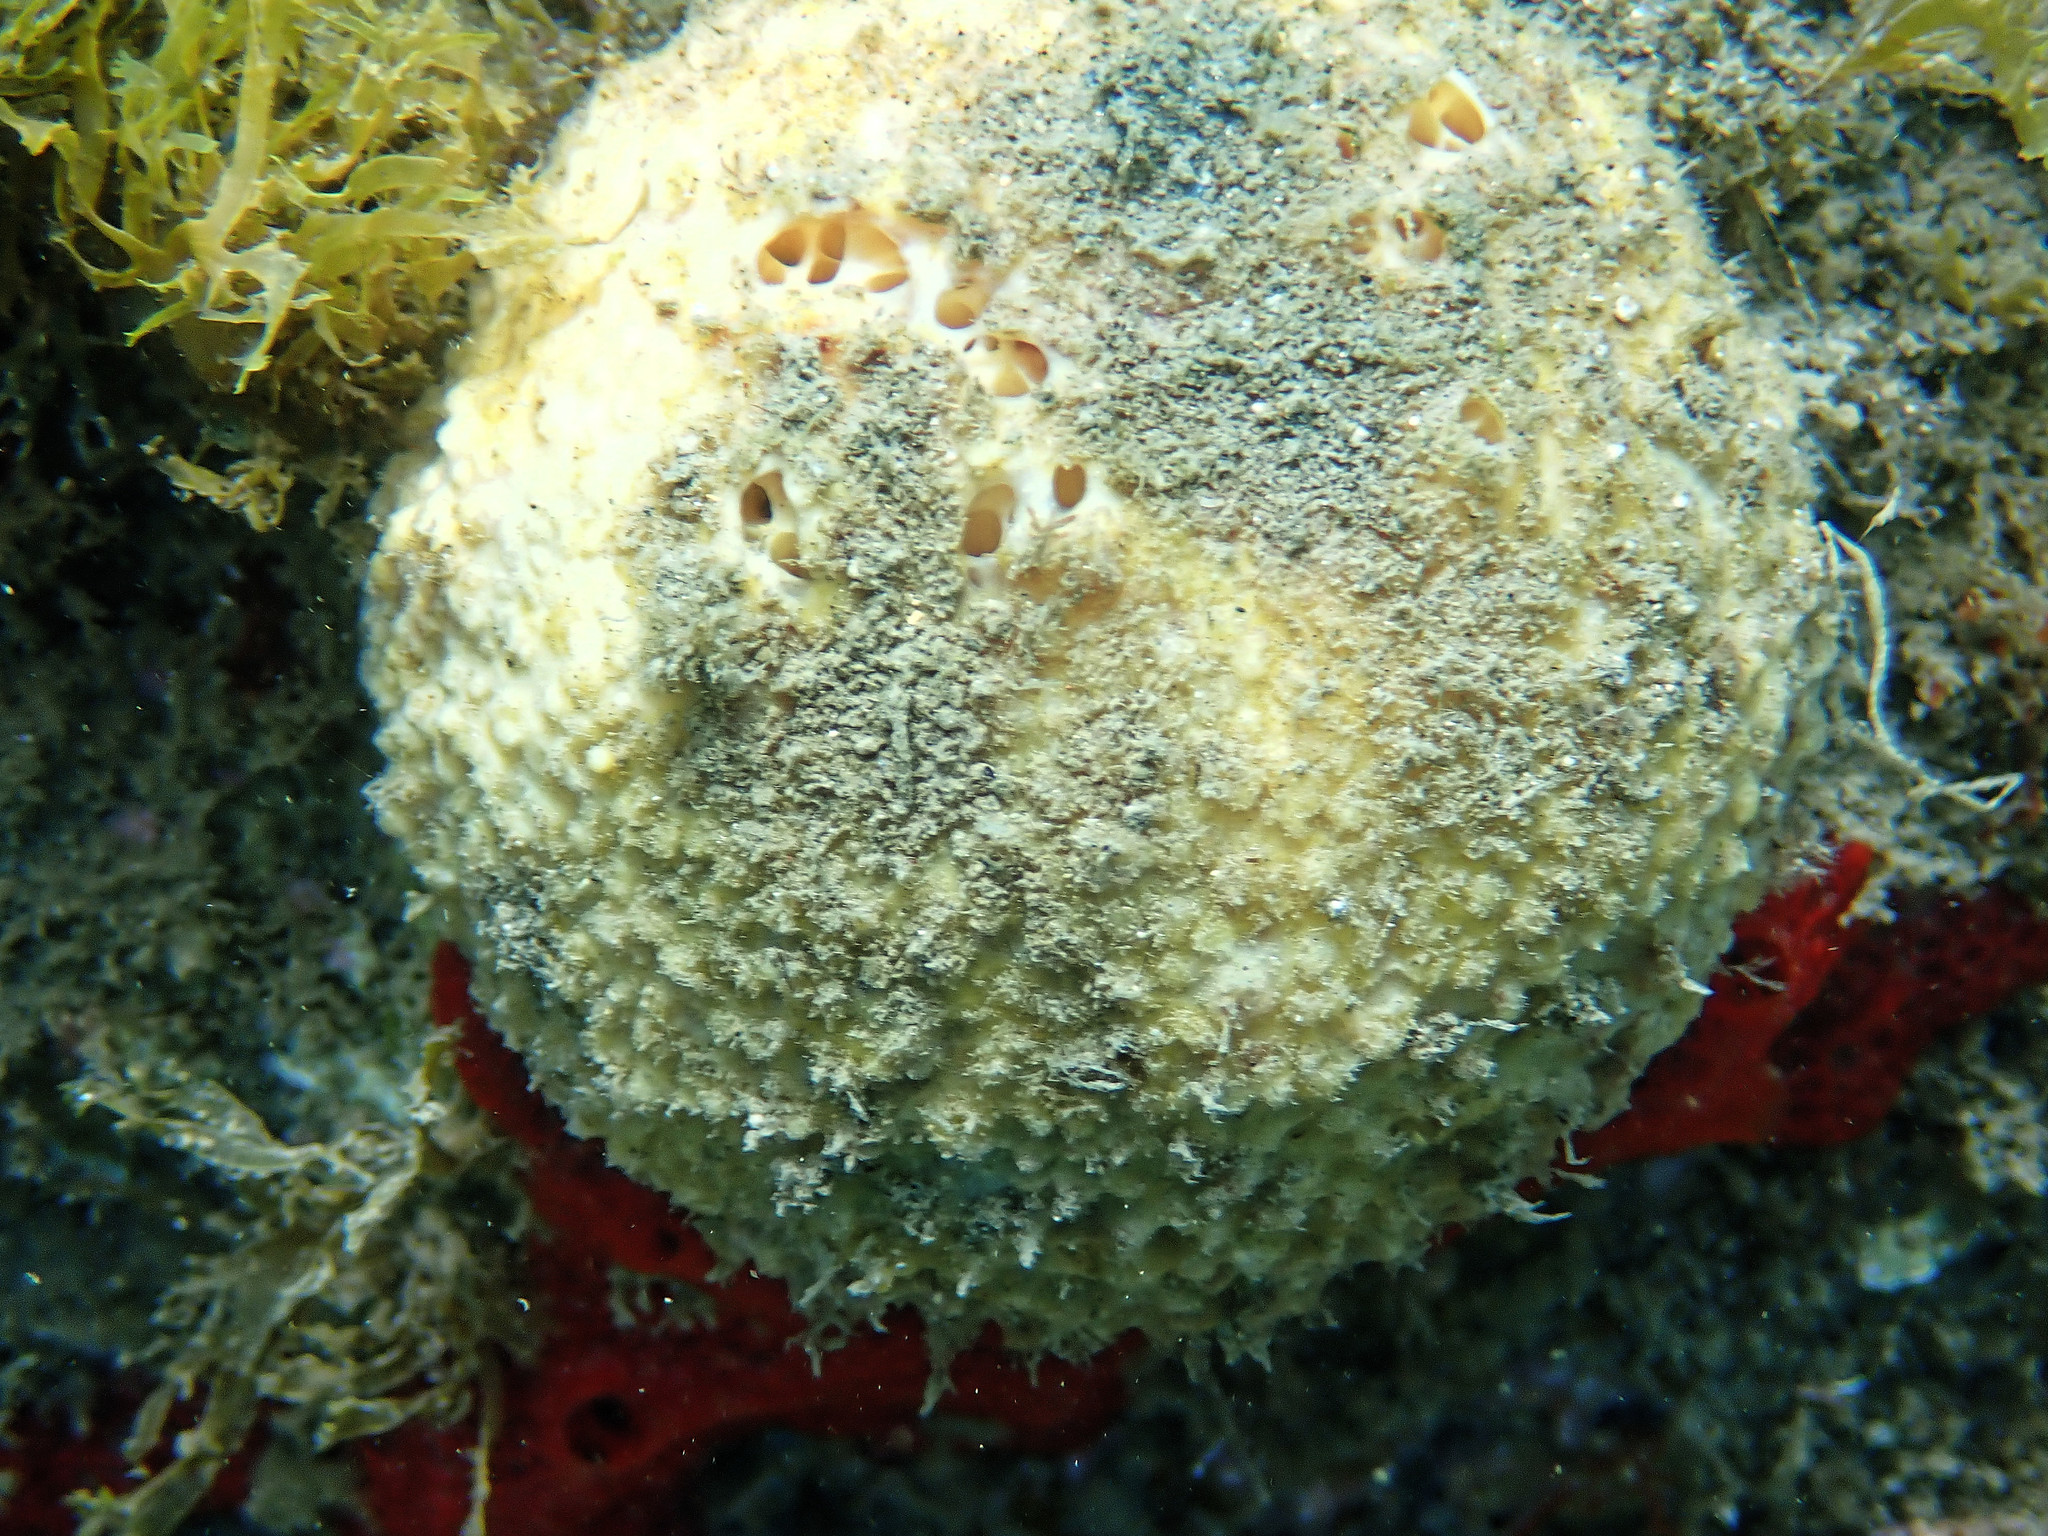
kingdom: Animalia
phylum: Porifera
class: Demospongiae
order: Tethyida
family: Tethyidae
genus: Tethya
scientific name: Tethya meloni
